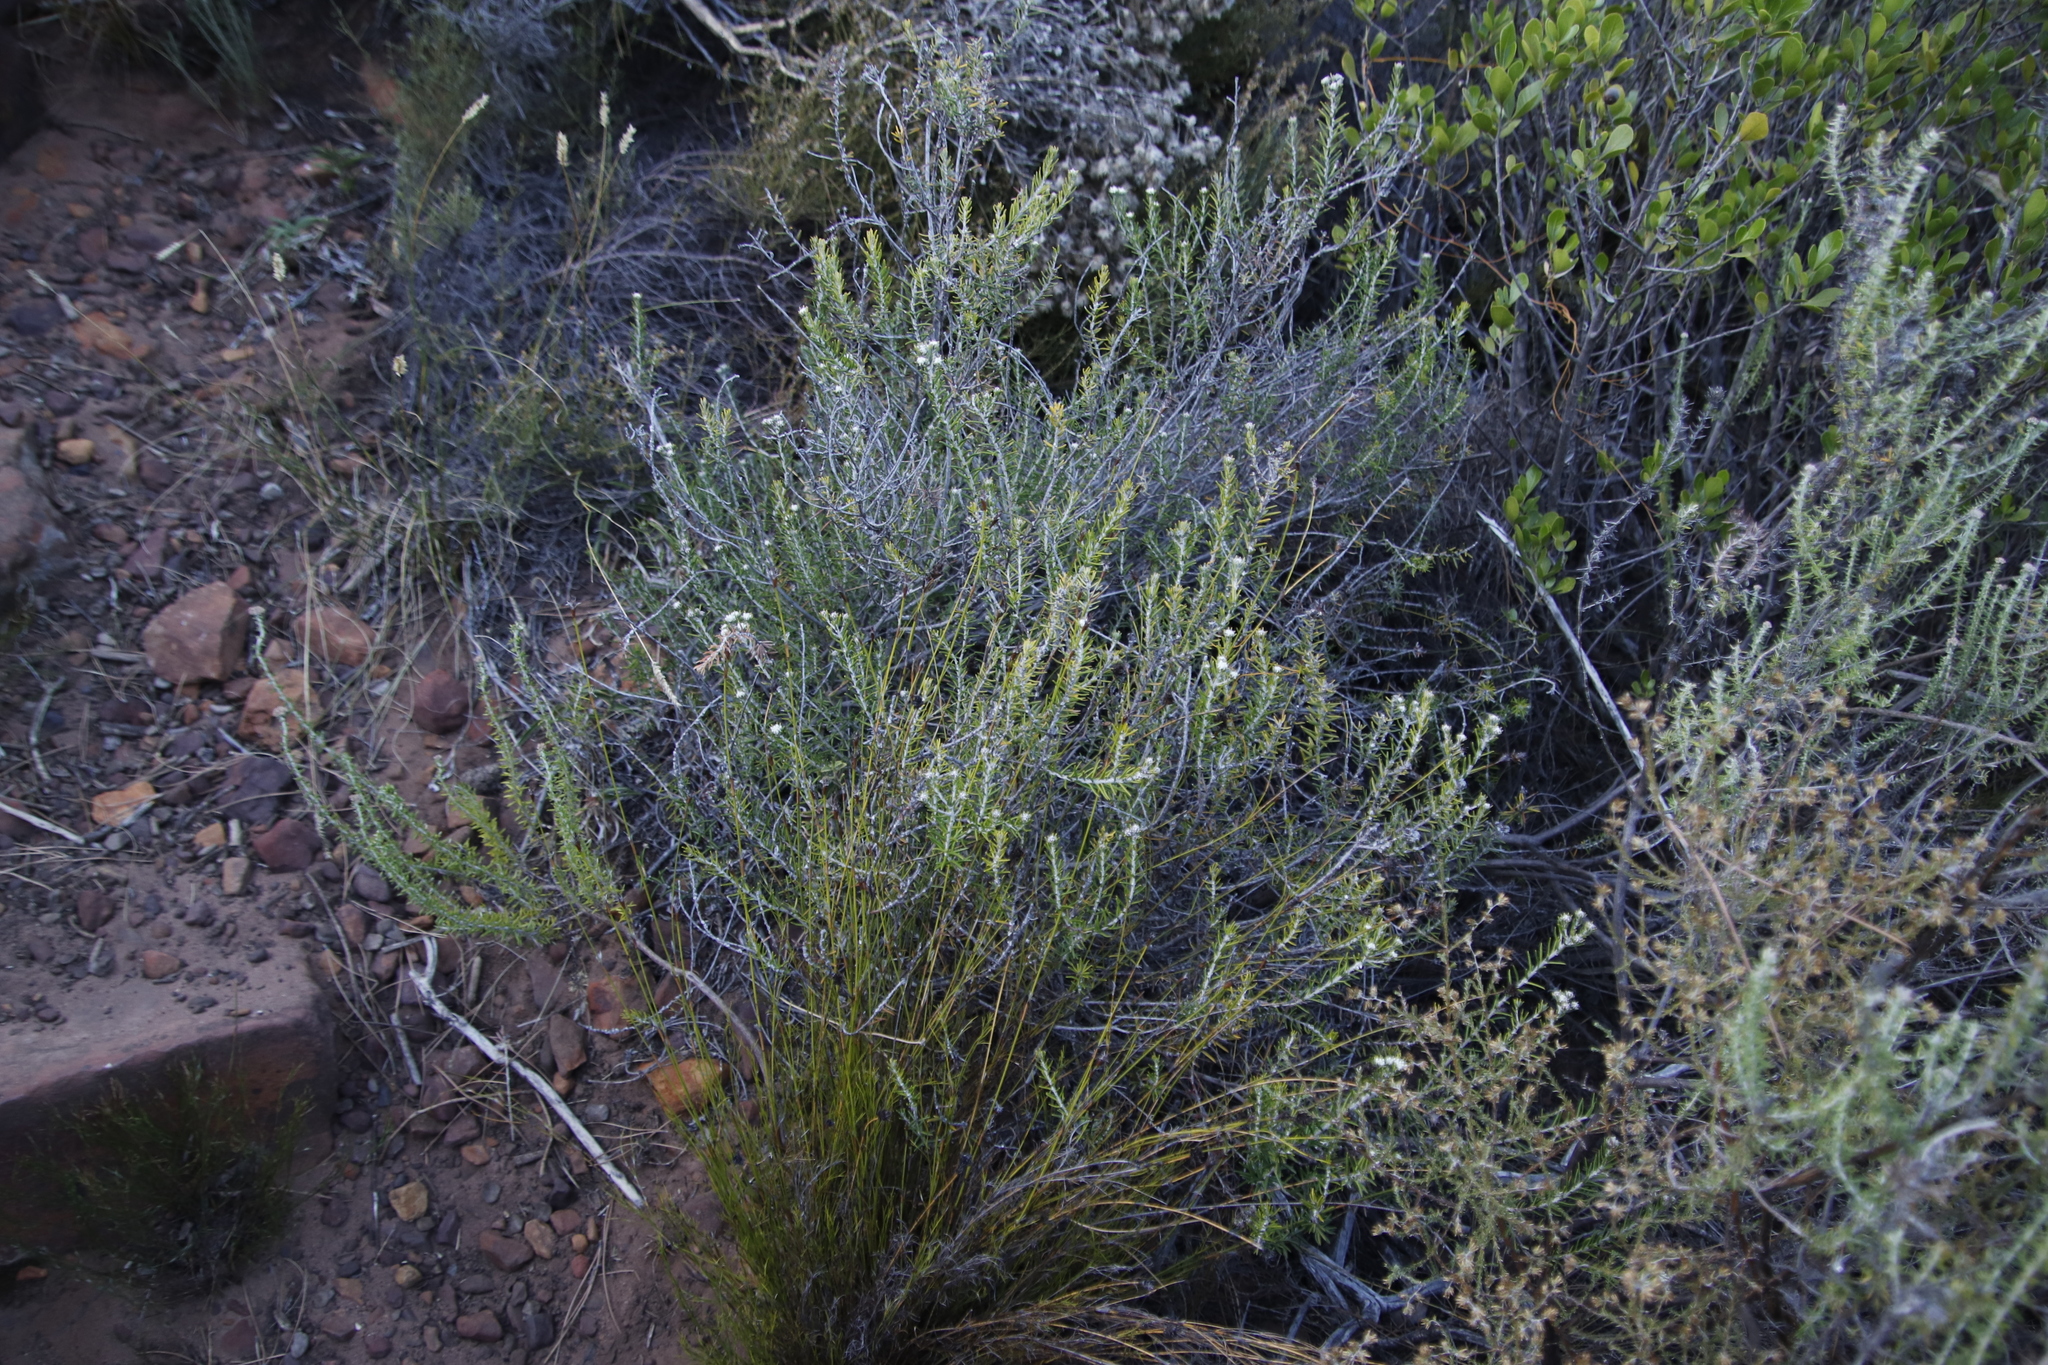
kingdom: Plantae
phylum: Tracheophyta
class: Magnoliopsida
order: Rosales
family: Rhamnaceae
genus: Trichocephalus
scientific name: Trichocephalus stipularis
